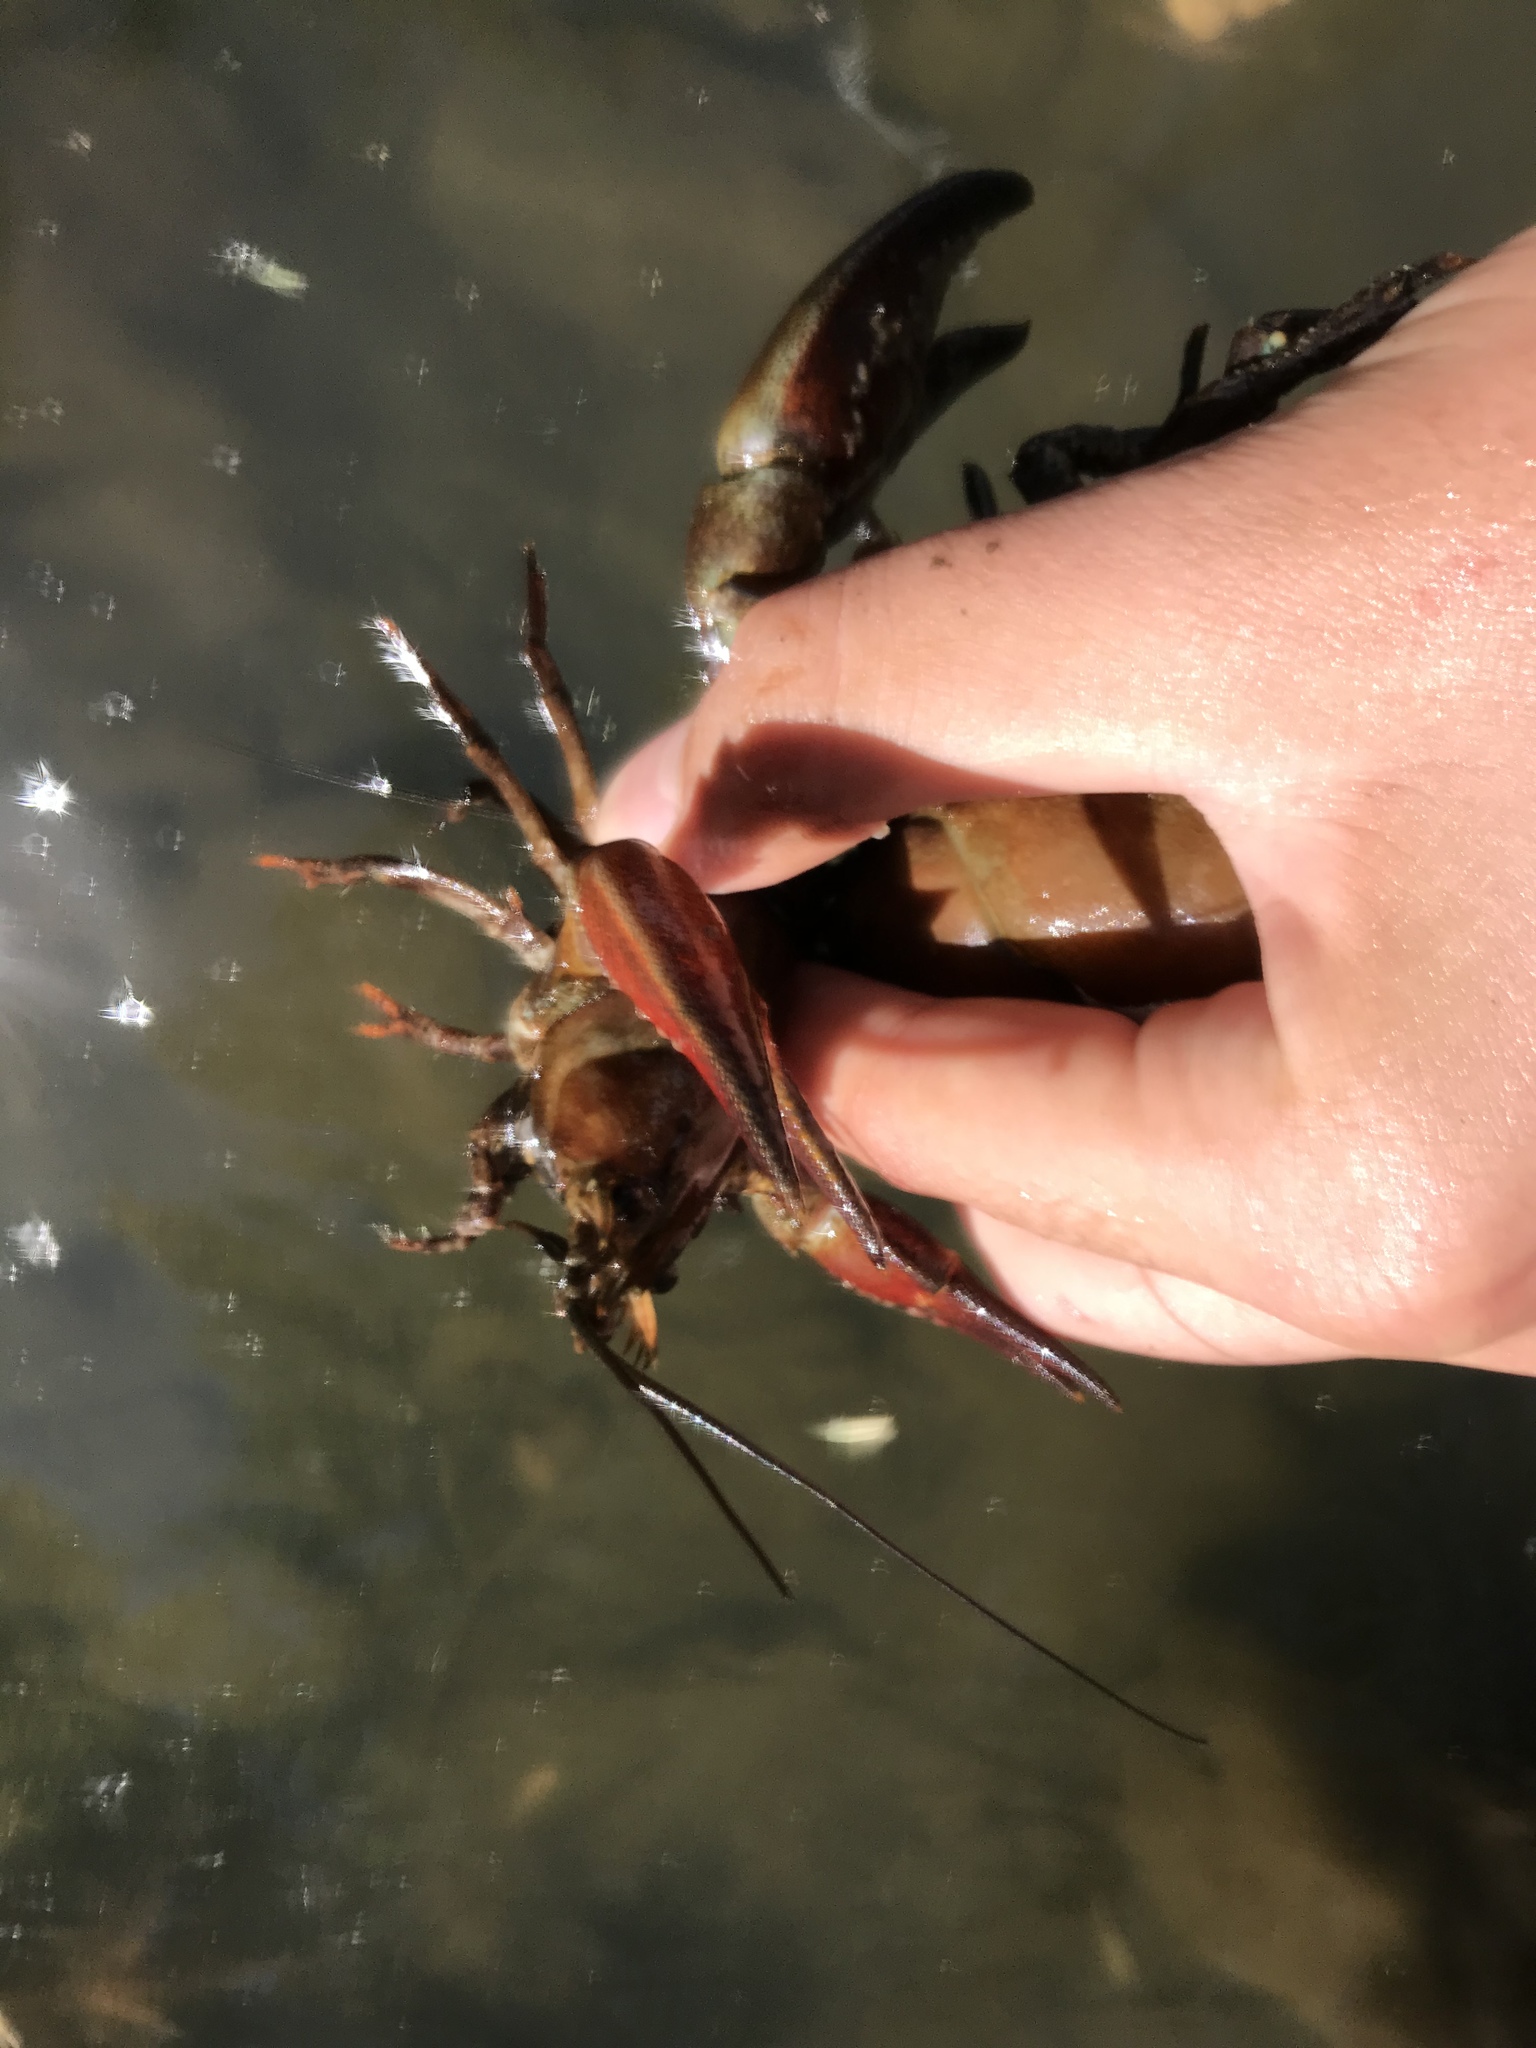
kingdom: Animalia
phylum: Arthropoda
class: Malacostraca
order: Decapoda
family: Astacidae
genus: Pacifastacus
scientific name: Pacifastacus leniusculus
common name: Signal crayfish
